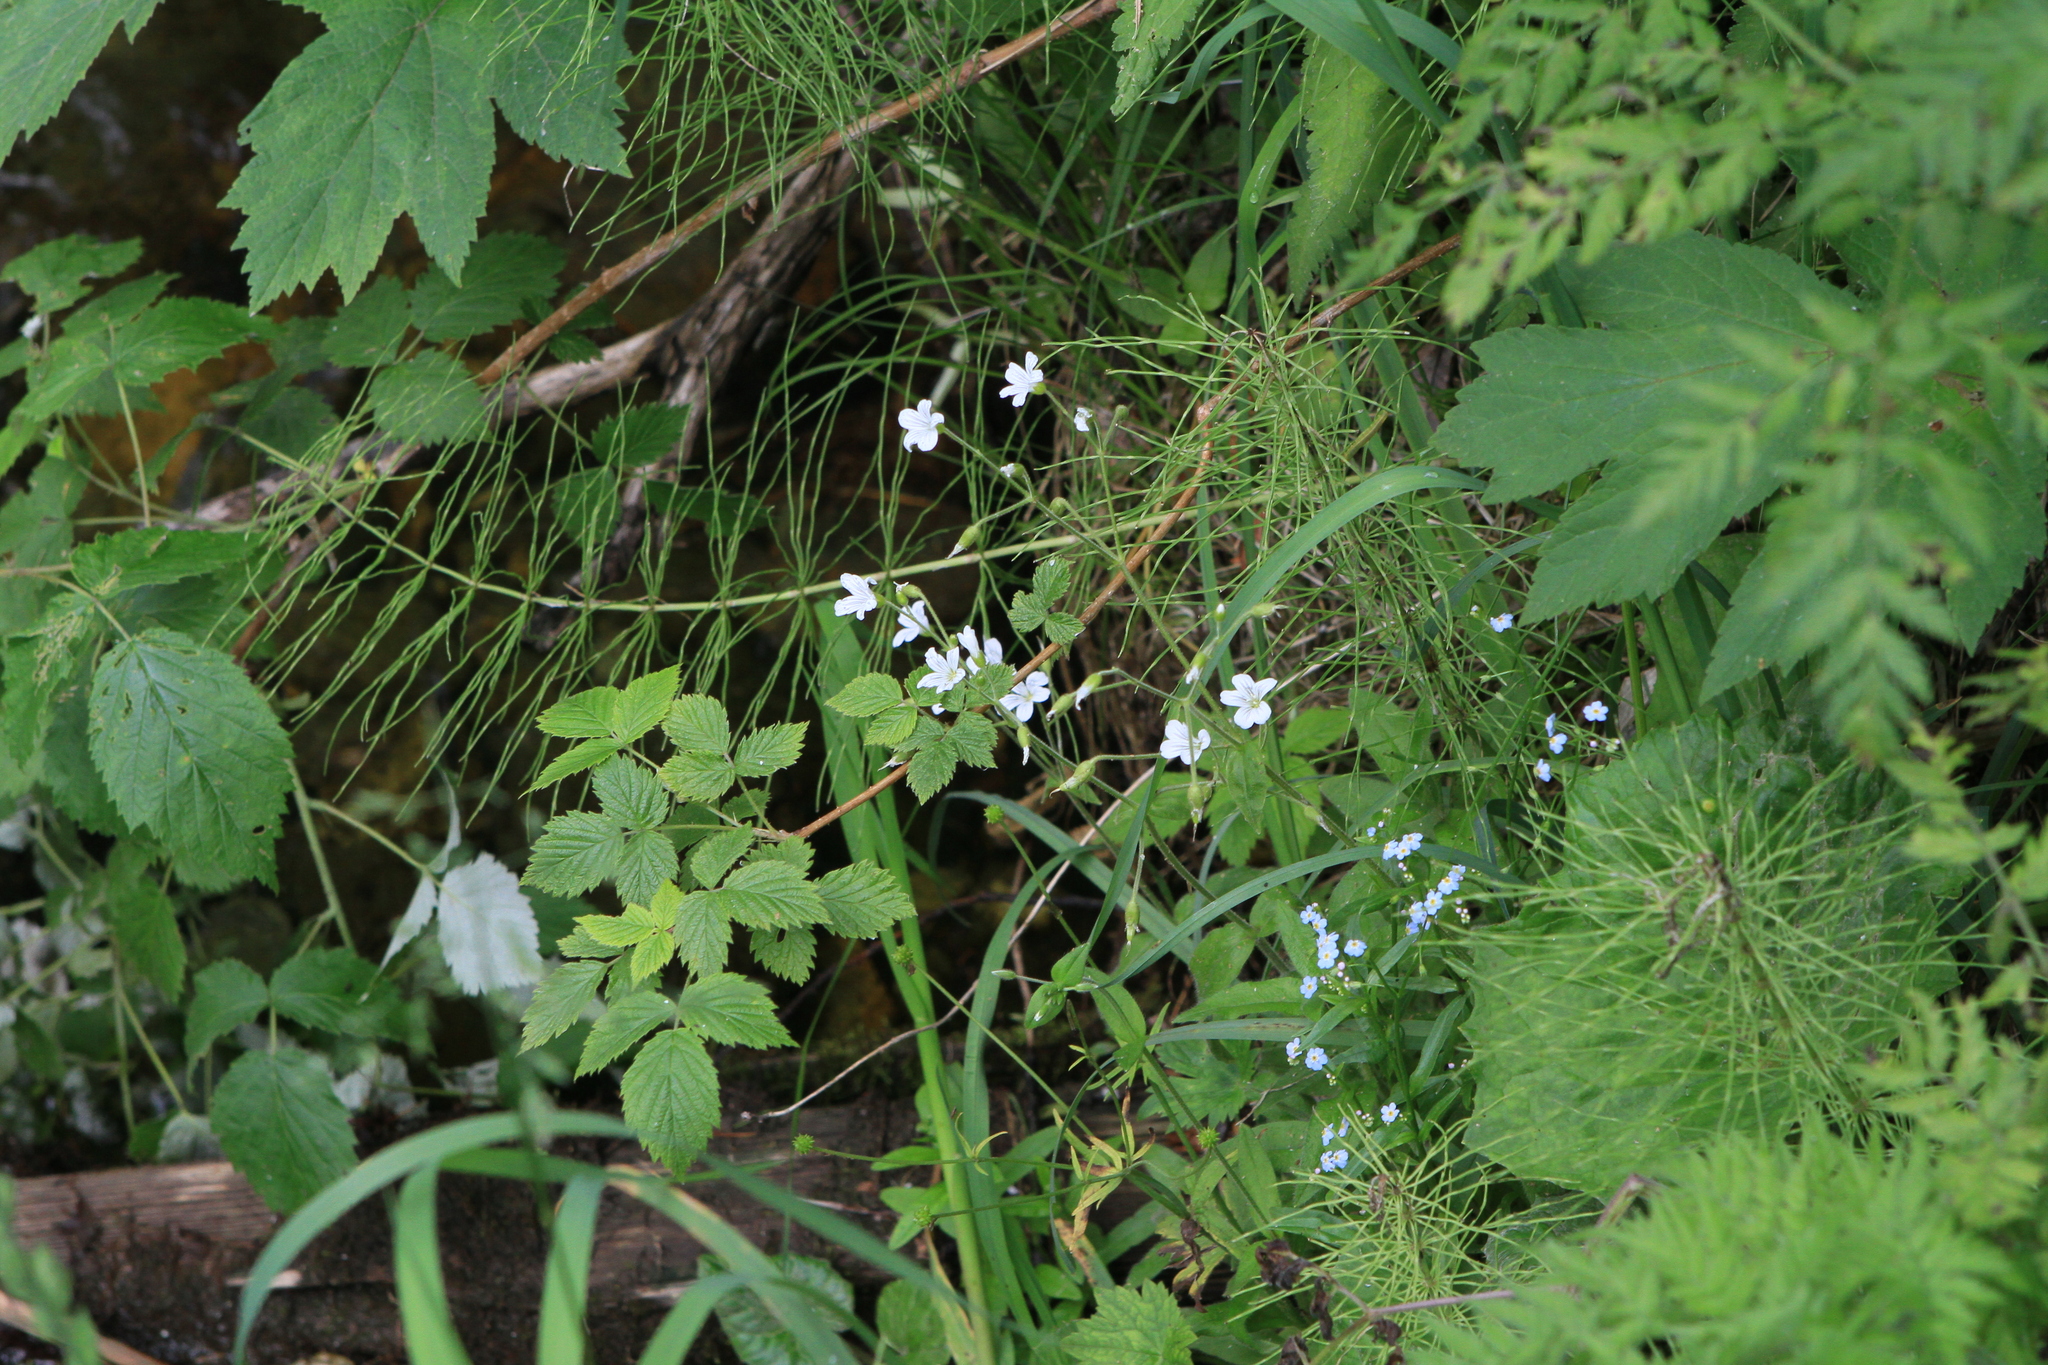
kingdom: Plantae
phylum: Tracheophyta
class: Magnoliopsida
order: Caryophyllales
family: Caryophyllaceae
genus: Cerastium
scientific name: Cerastium pauciflorum
